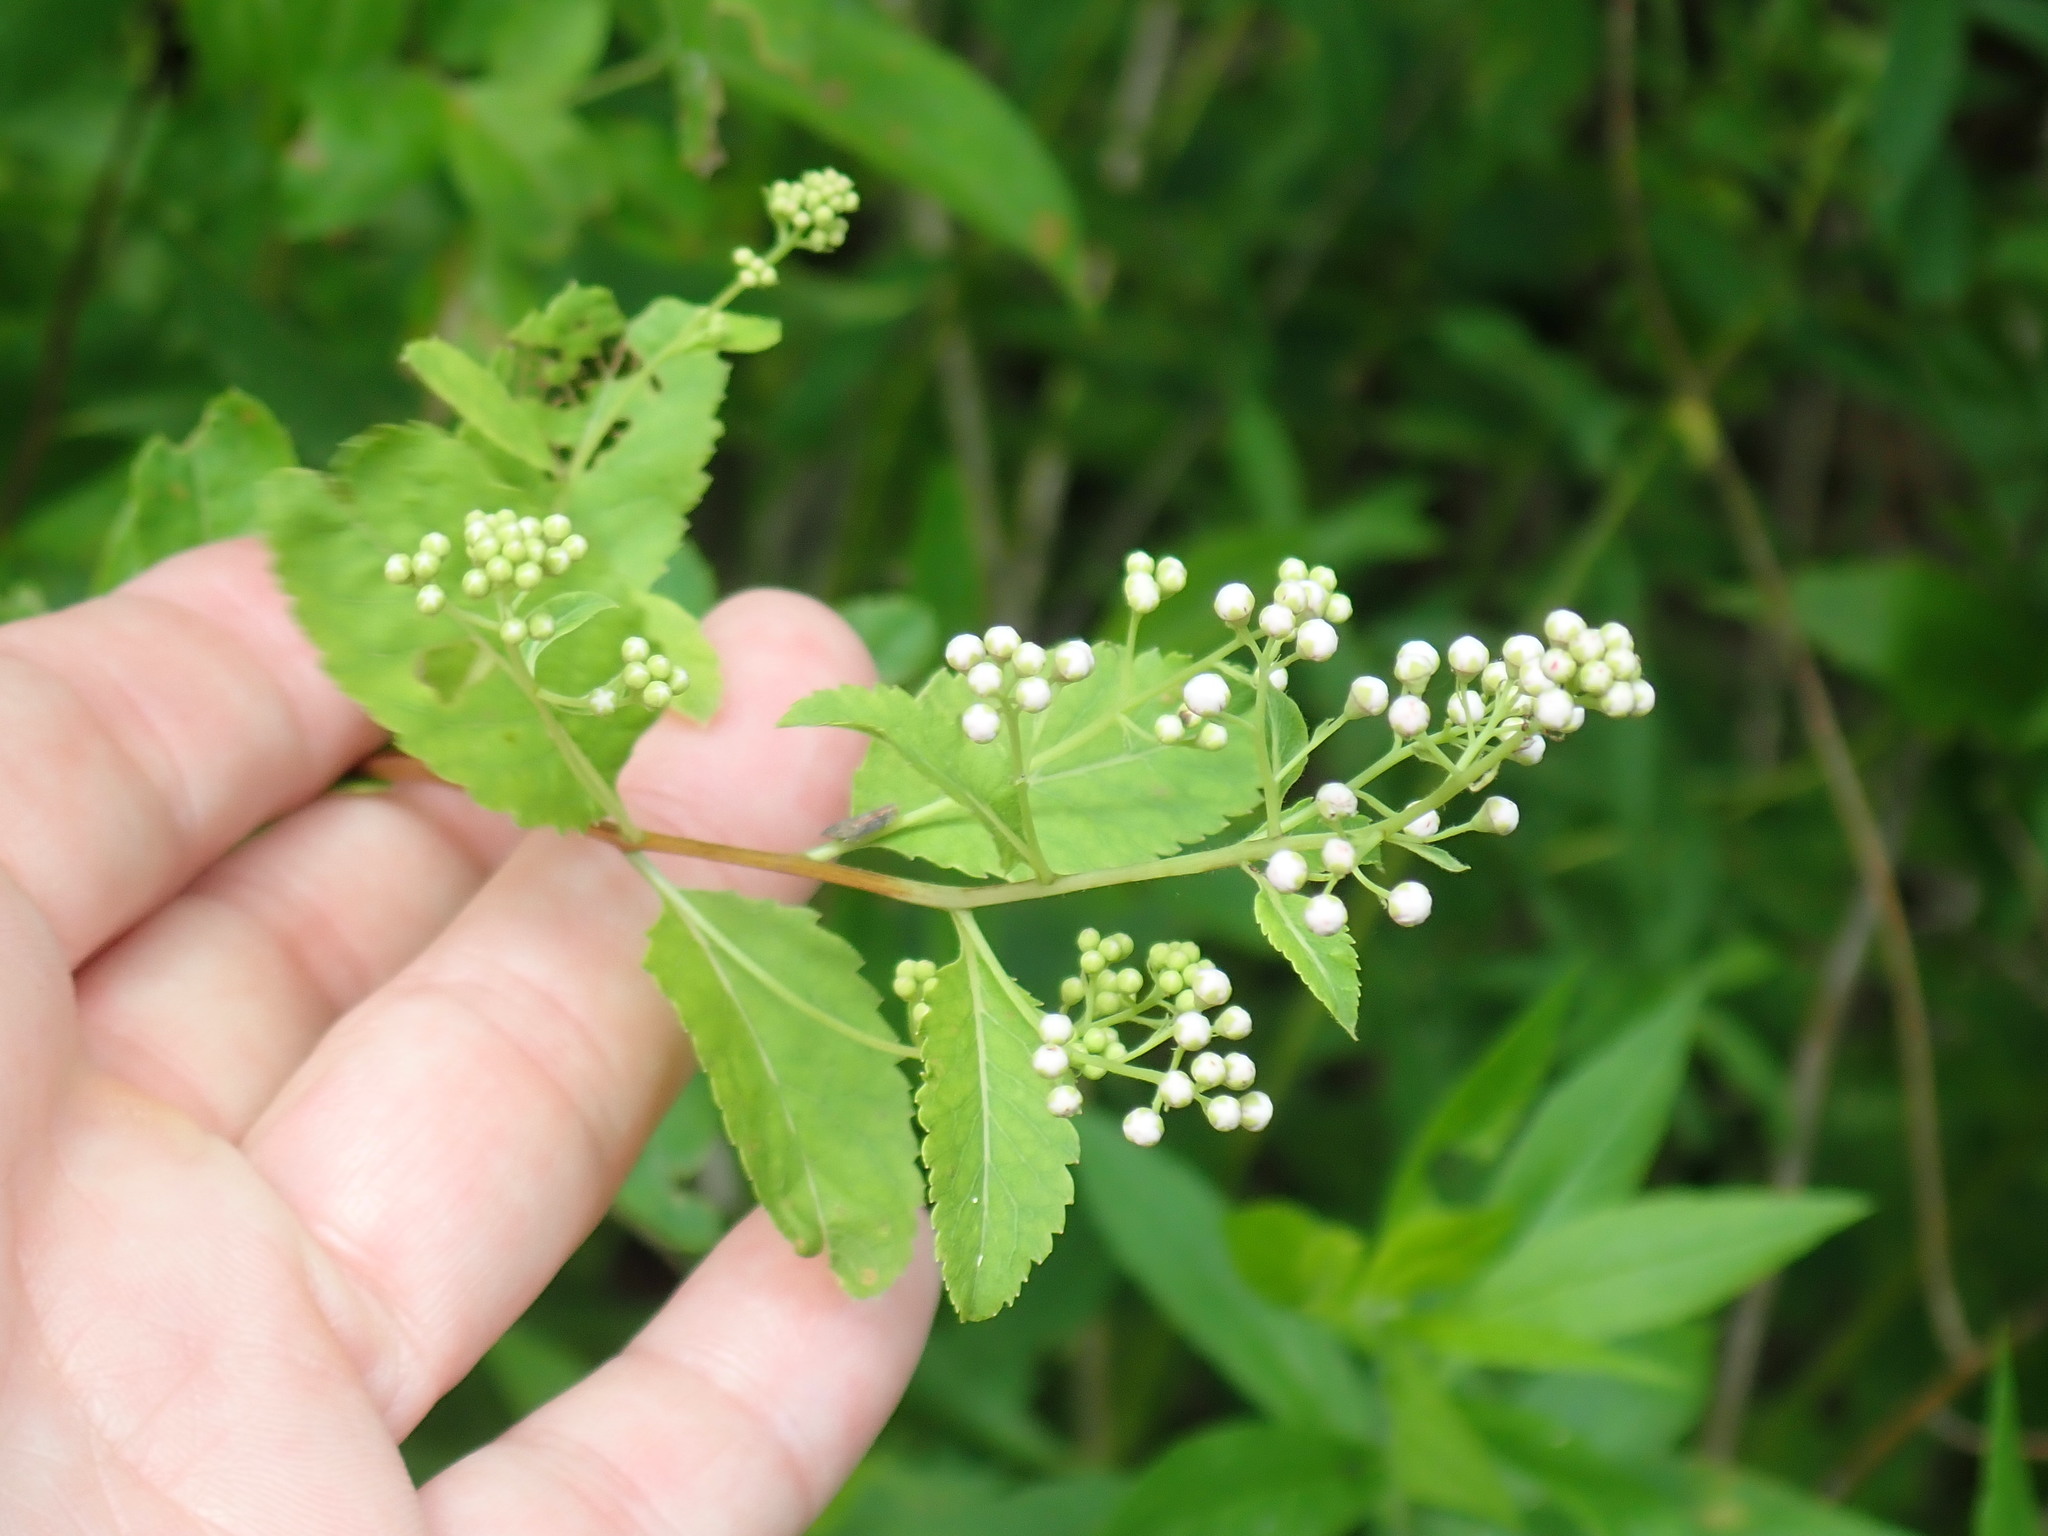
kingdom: Plantae
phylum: Tracheophyta
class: Magnoliopsida
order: Rosales
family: Rosaceae
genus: Spiraea
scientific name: Spiraea alba
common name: Pale bridewort
